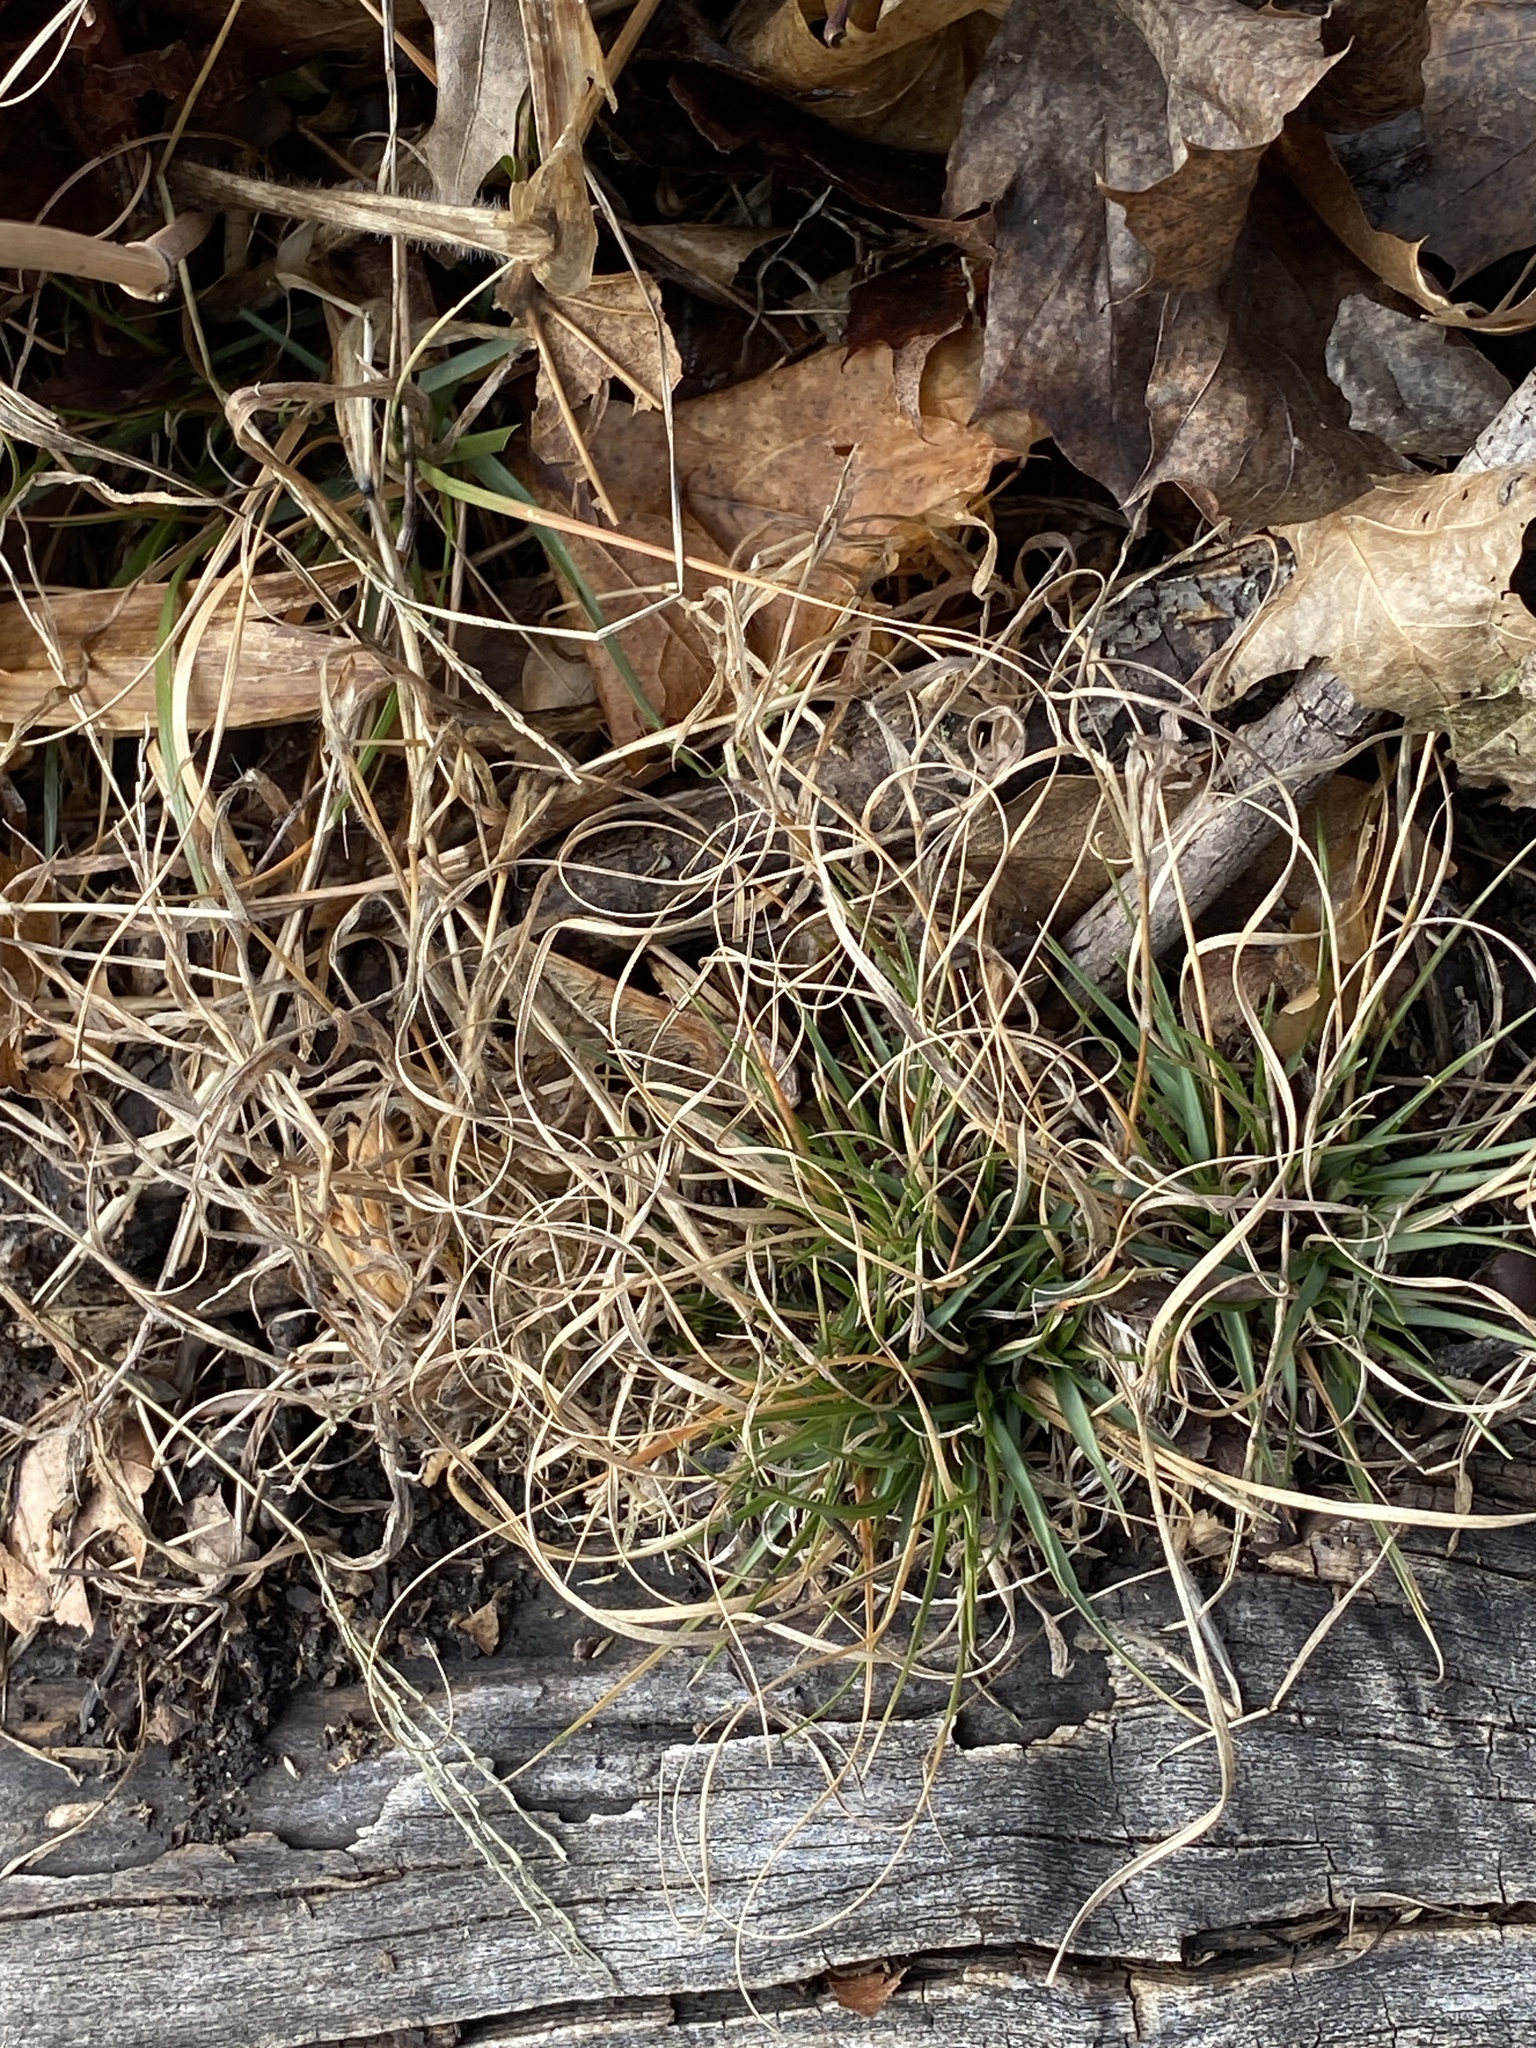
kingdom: Plantae
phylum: Tracheophyta
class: Liliopsida
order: Poales
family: Poaceae
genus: Danthonia
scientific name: Danthonia spicata
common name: Common wild oatgrass
